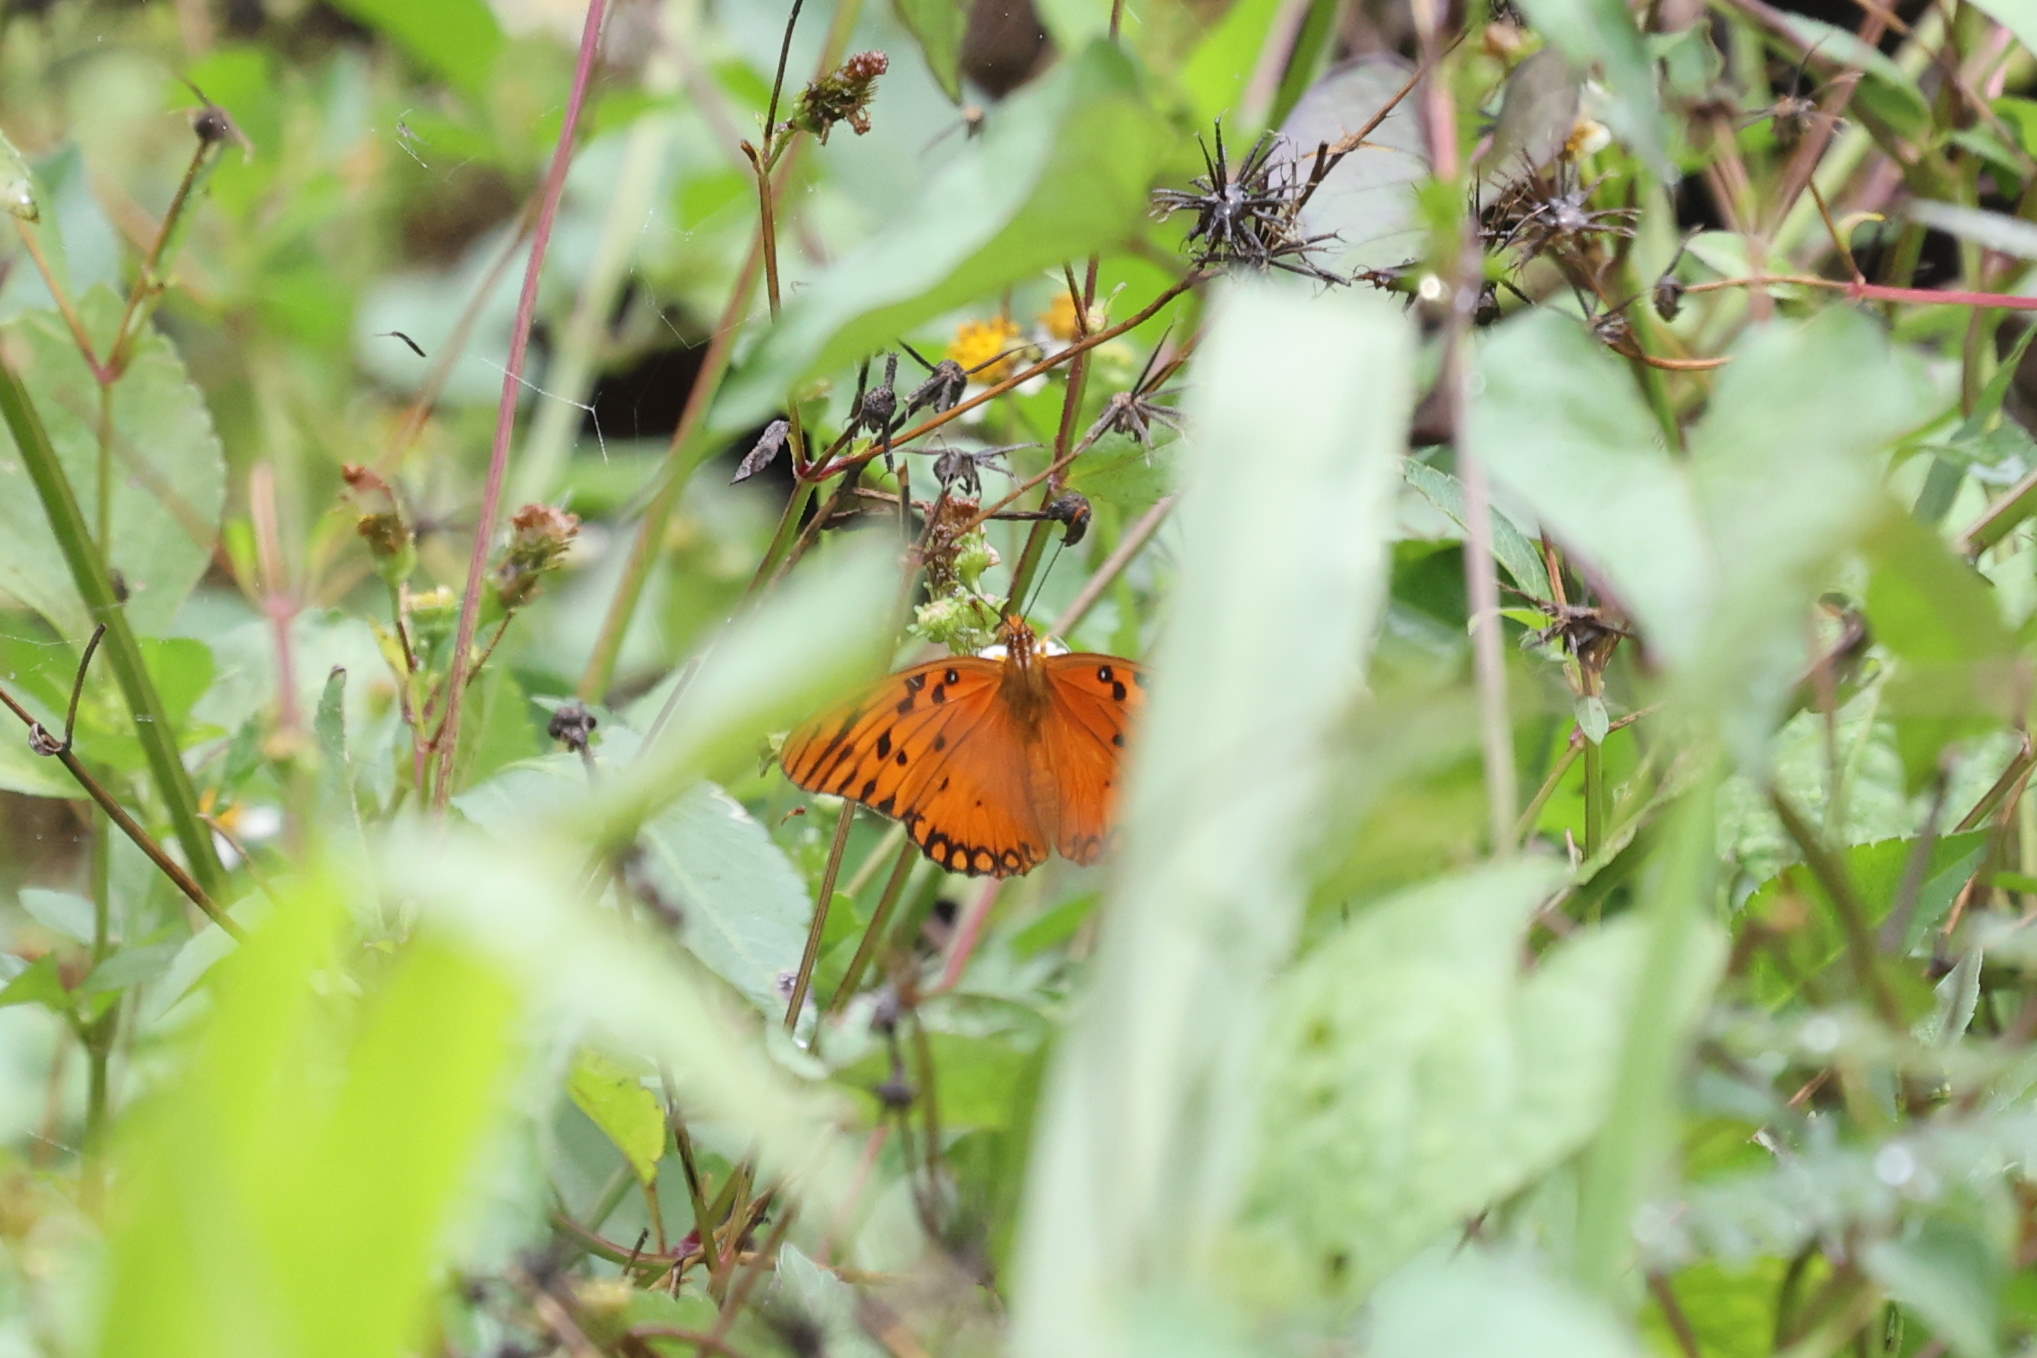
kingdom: Animalia
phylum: Arthropoda
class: Insecta
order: Lepidoptera
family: Nymphalidae
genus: Dione
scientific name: Dione vanillae
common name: Gulf fritillary
